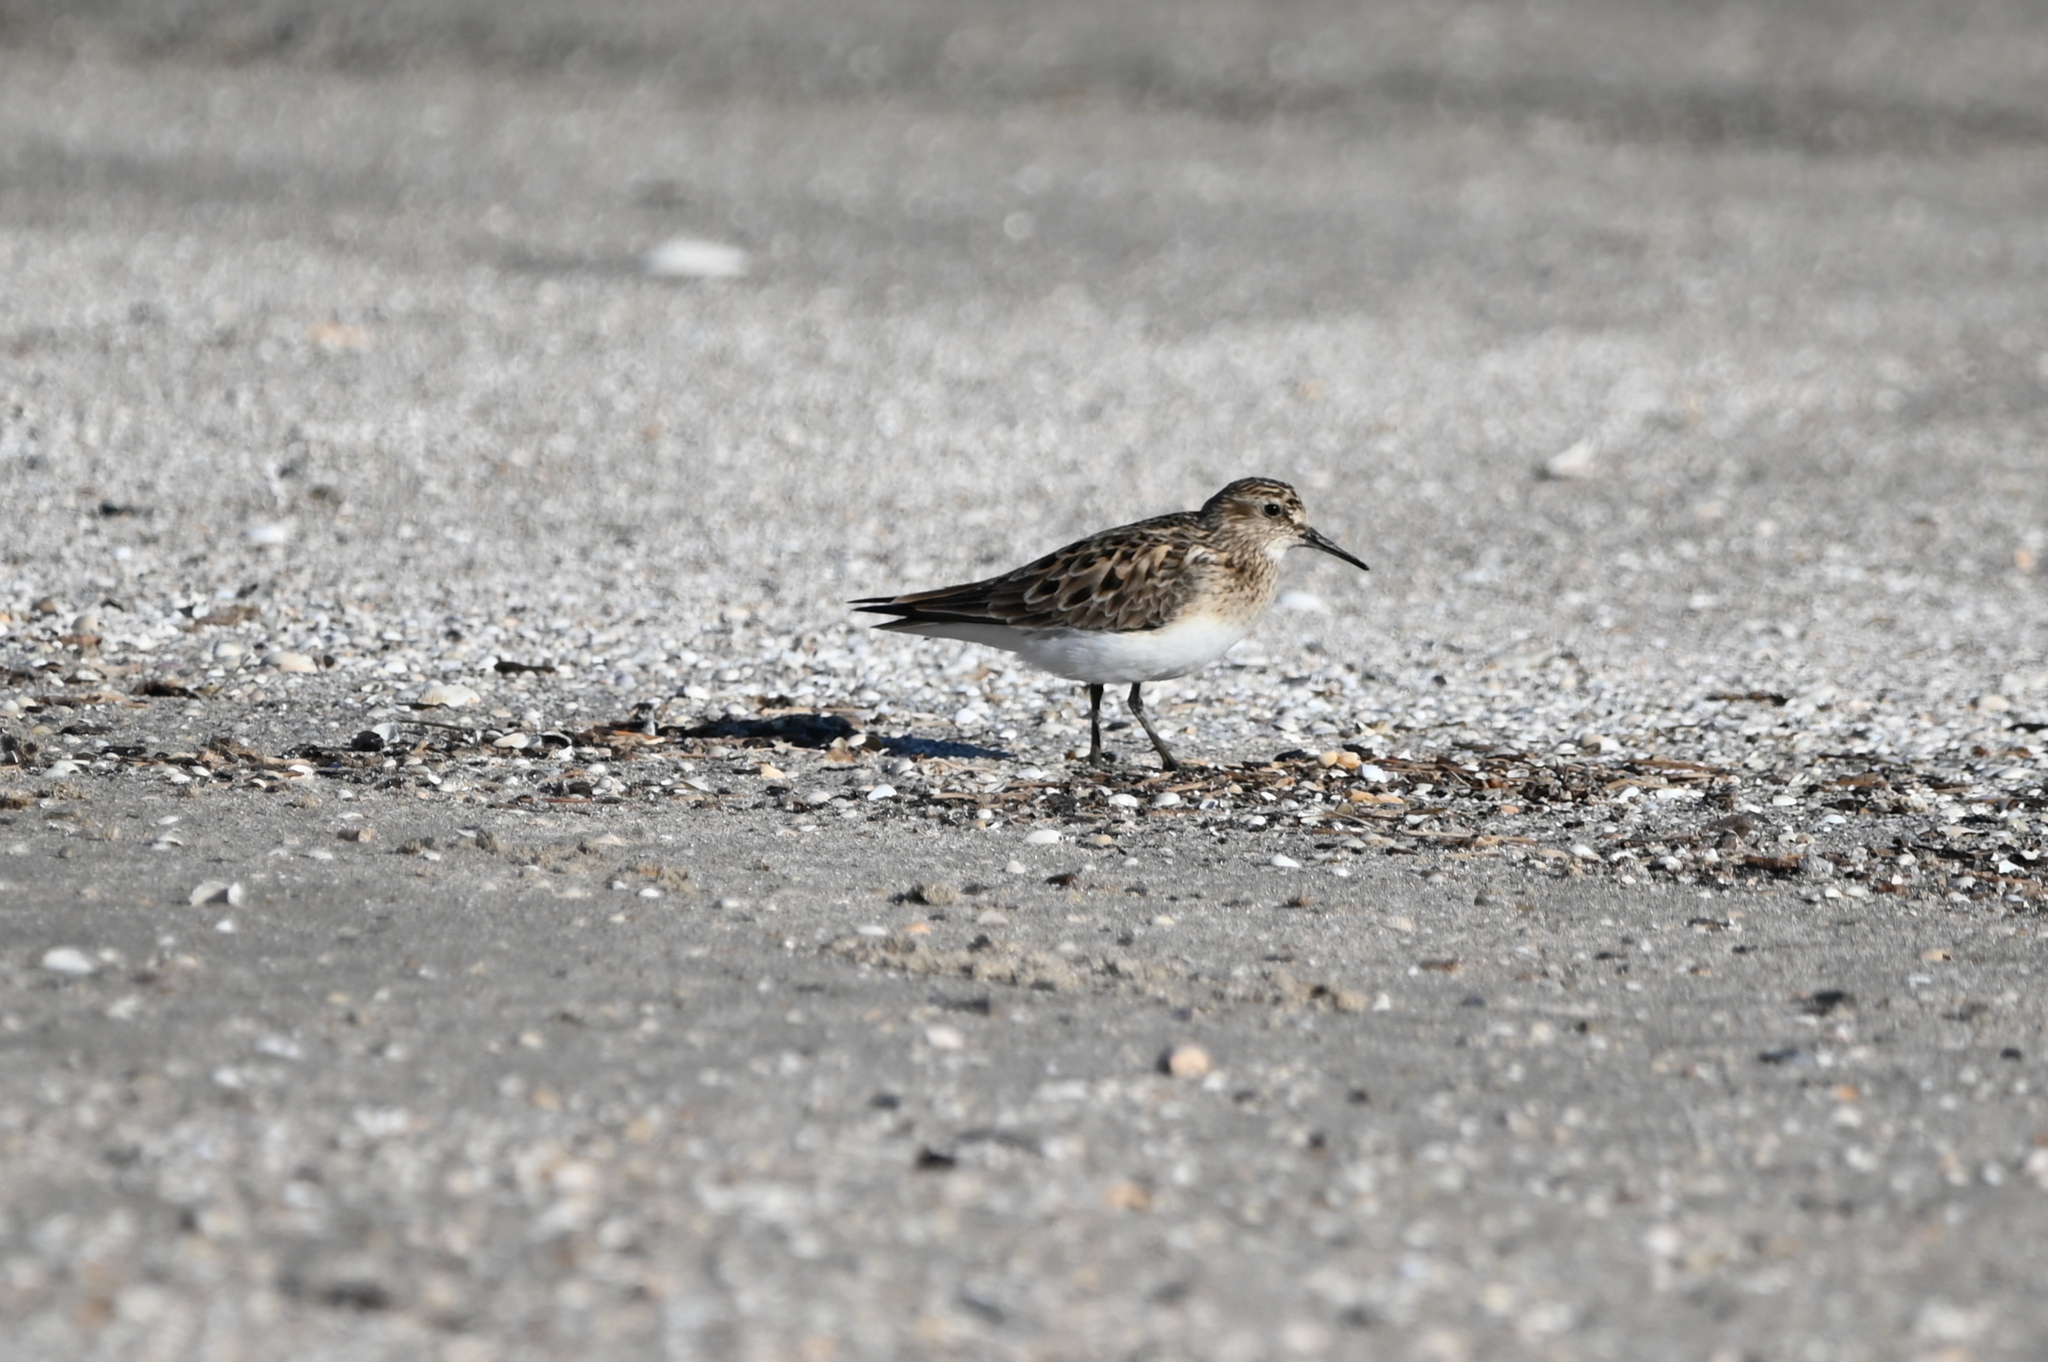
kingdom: Animalia
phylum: Chordata
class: Aves
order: Charadriiformes
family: Scolopacidae
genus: Calidris
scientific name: Calidris bairdii
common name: Baird's sandpiper
